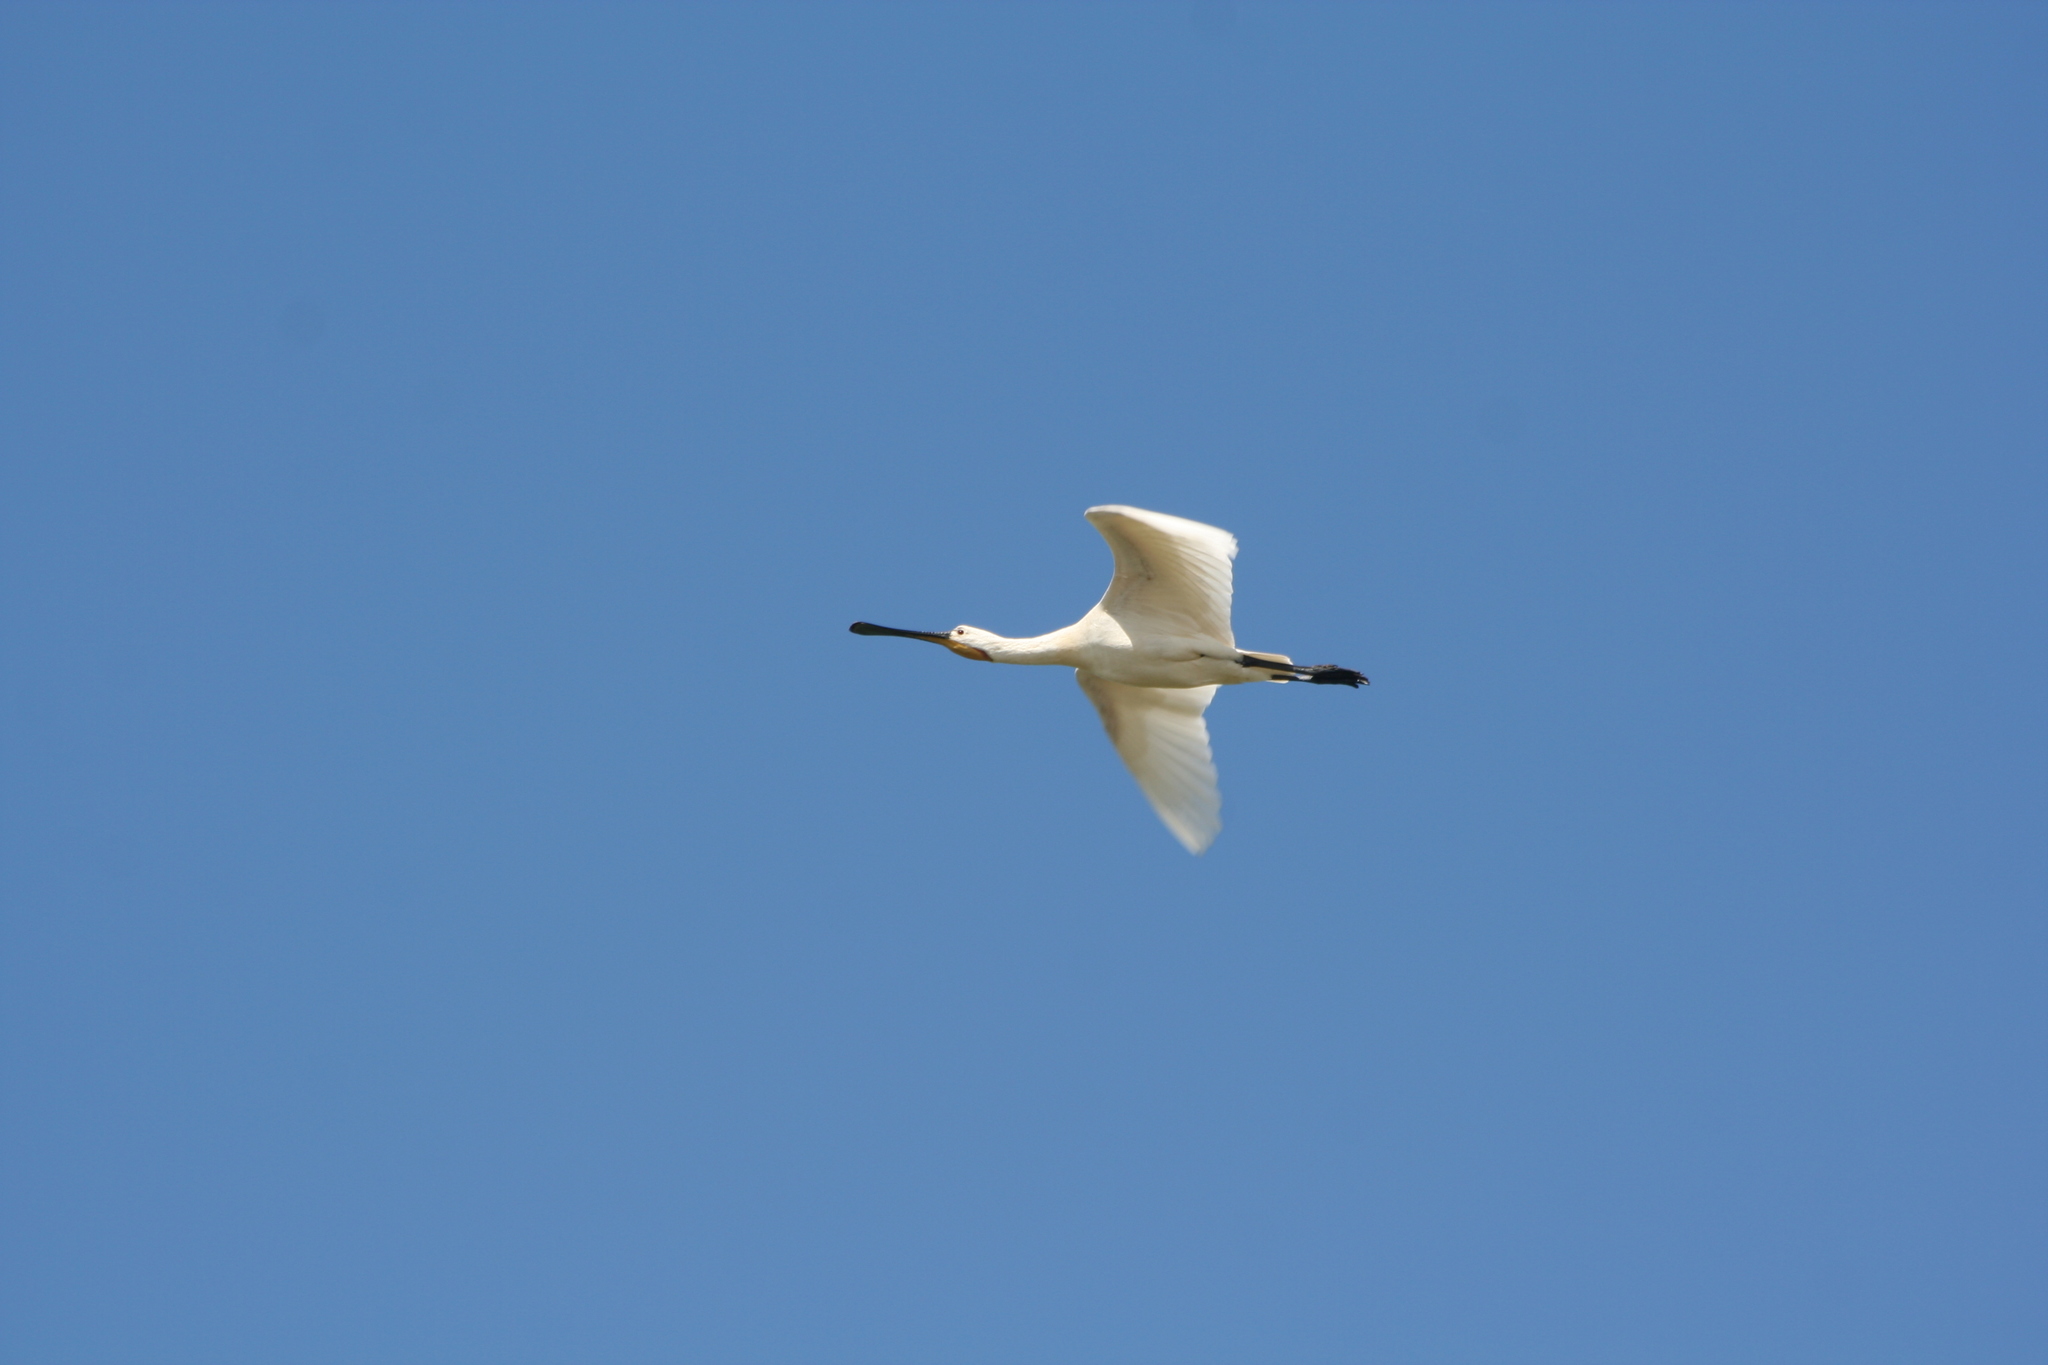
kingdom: Animalia
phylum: Chordata
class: Aves
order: Pelecaniformes
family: Threskiornithidae
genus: Platalea
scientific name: Platalea leucorodia
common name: Eurasian spoonbill
